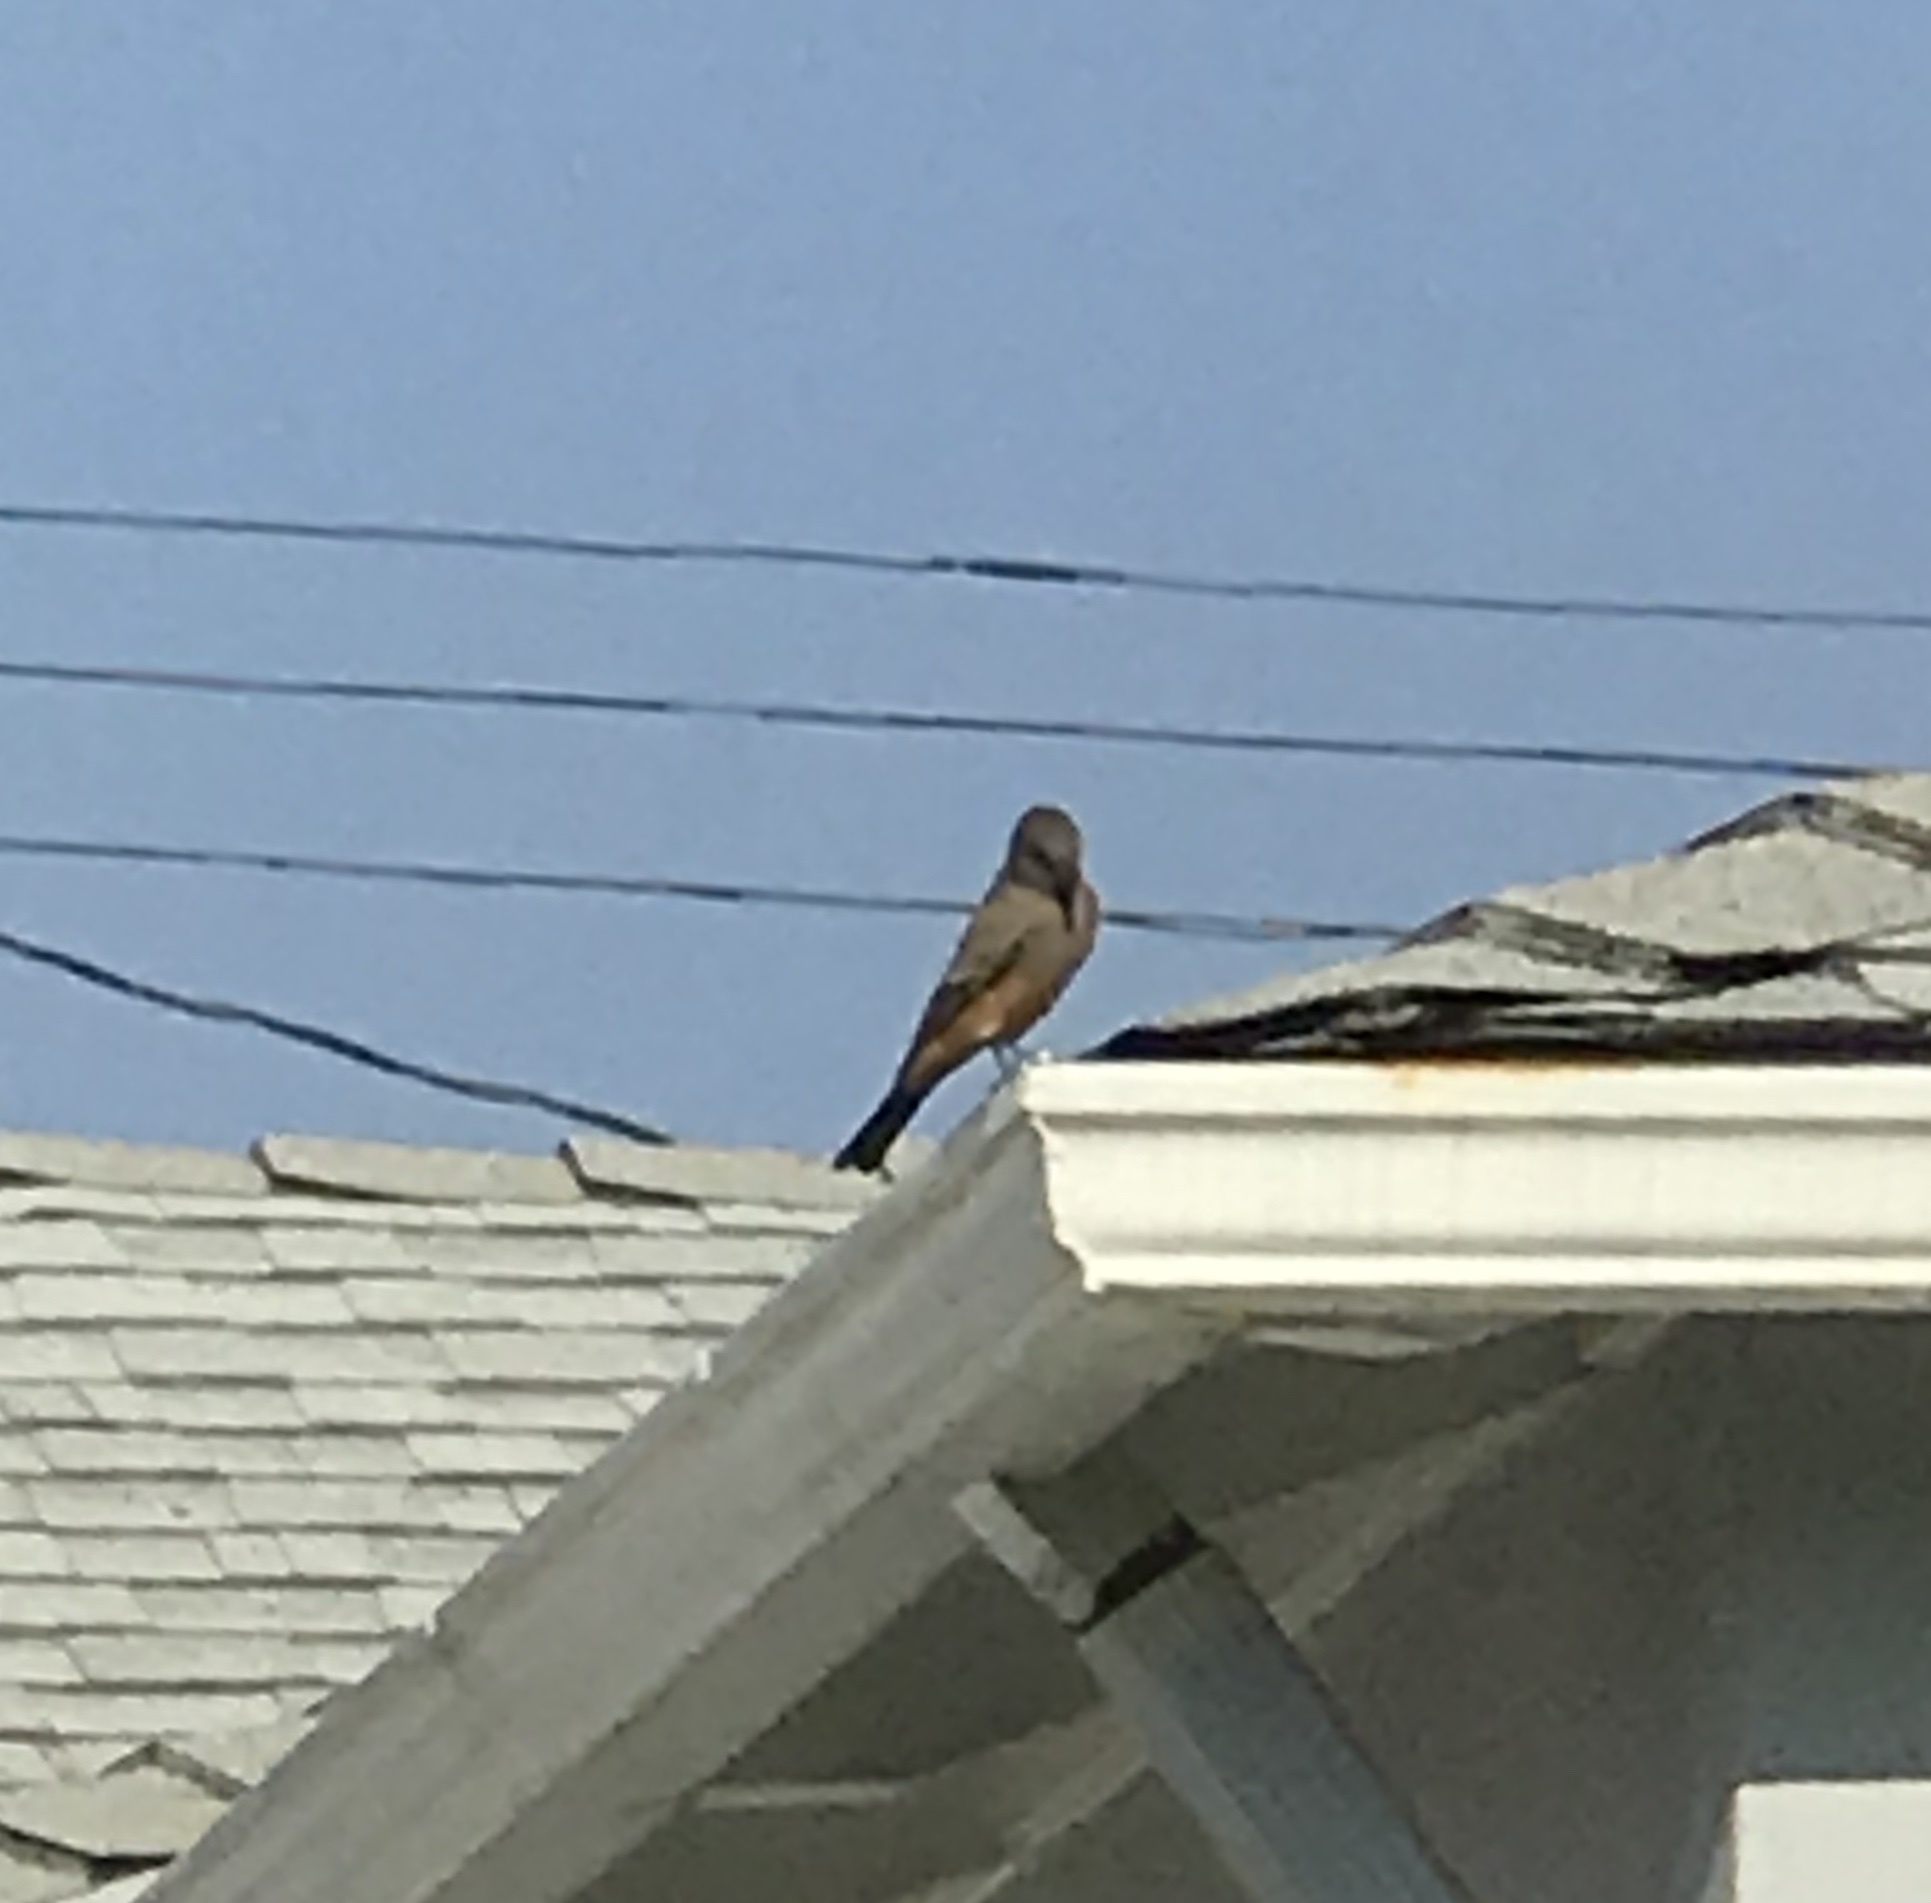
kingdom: Animalia
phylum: Chordata
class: Aves
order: Passeriformes
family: Tyrannidae
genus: Sayornis
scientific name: Sayornis saya
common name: Say's phoebe
